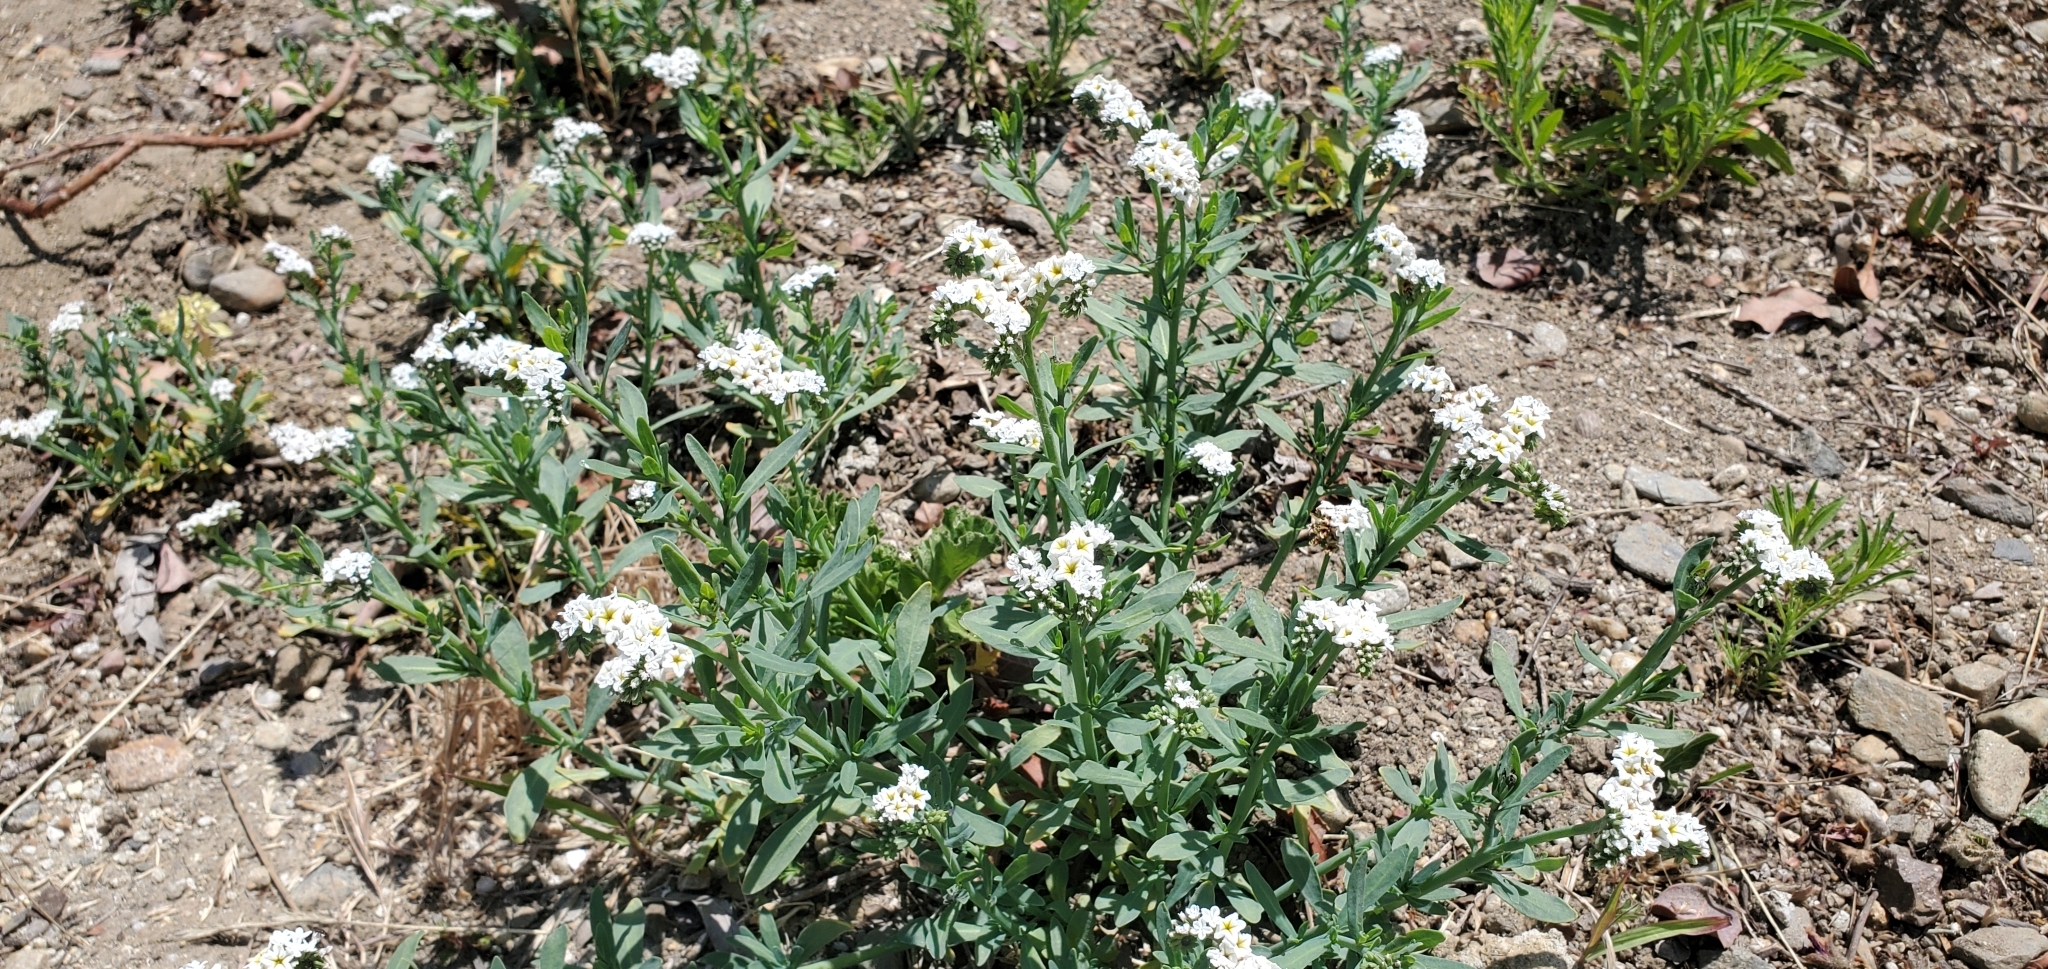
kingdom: Plantae
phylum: Tracheophyta
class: Magnoliopsida
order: Boraginales
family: Heliotropiaceae
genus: Heliotropium
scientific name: Heliotropium curassavicum
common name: Seaside heliotrope
